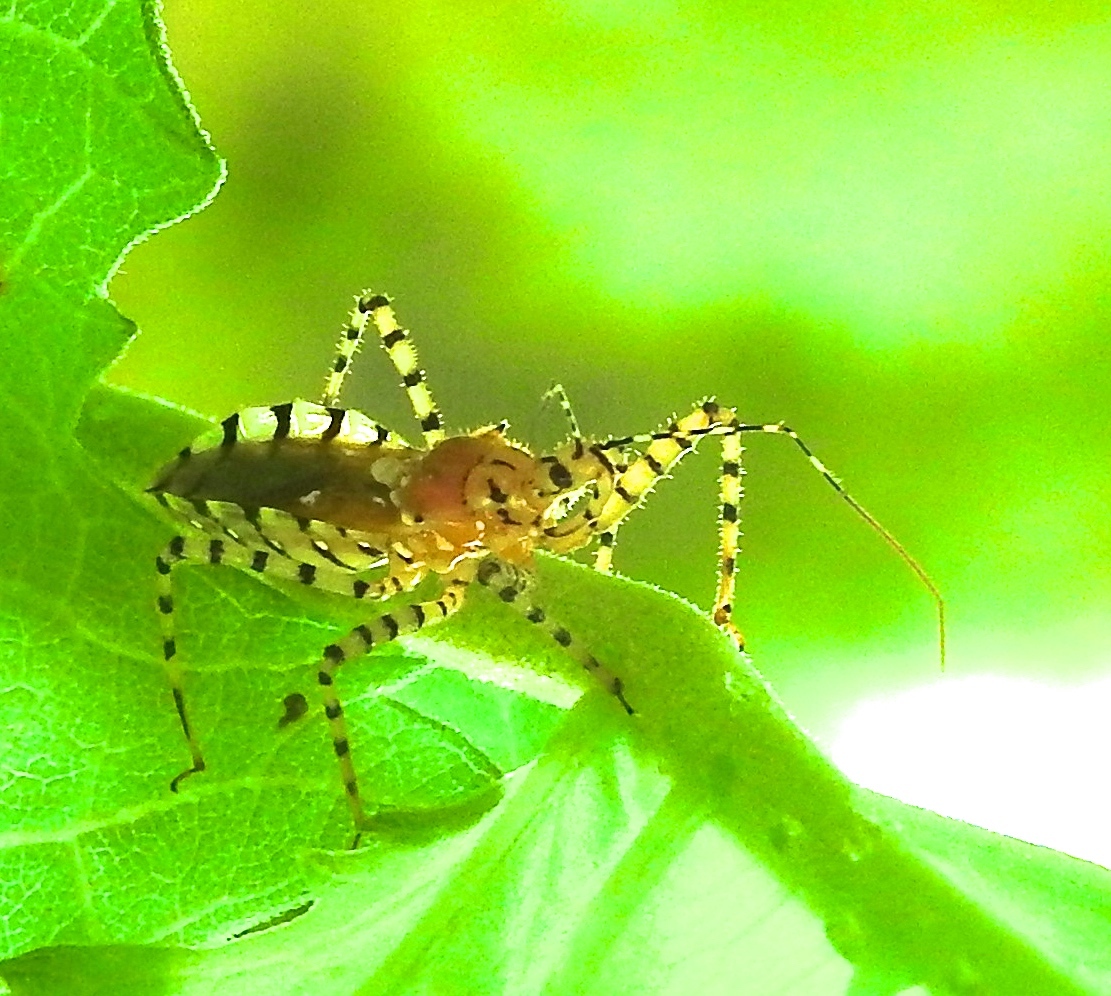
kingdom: Animalia
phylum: Arthropoda
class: Insecta
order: Hemiptera
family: Reduviidae
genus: Pselliopus
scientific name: Pselliopus
